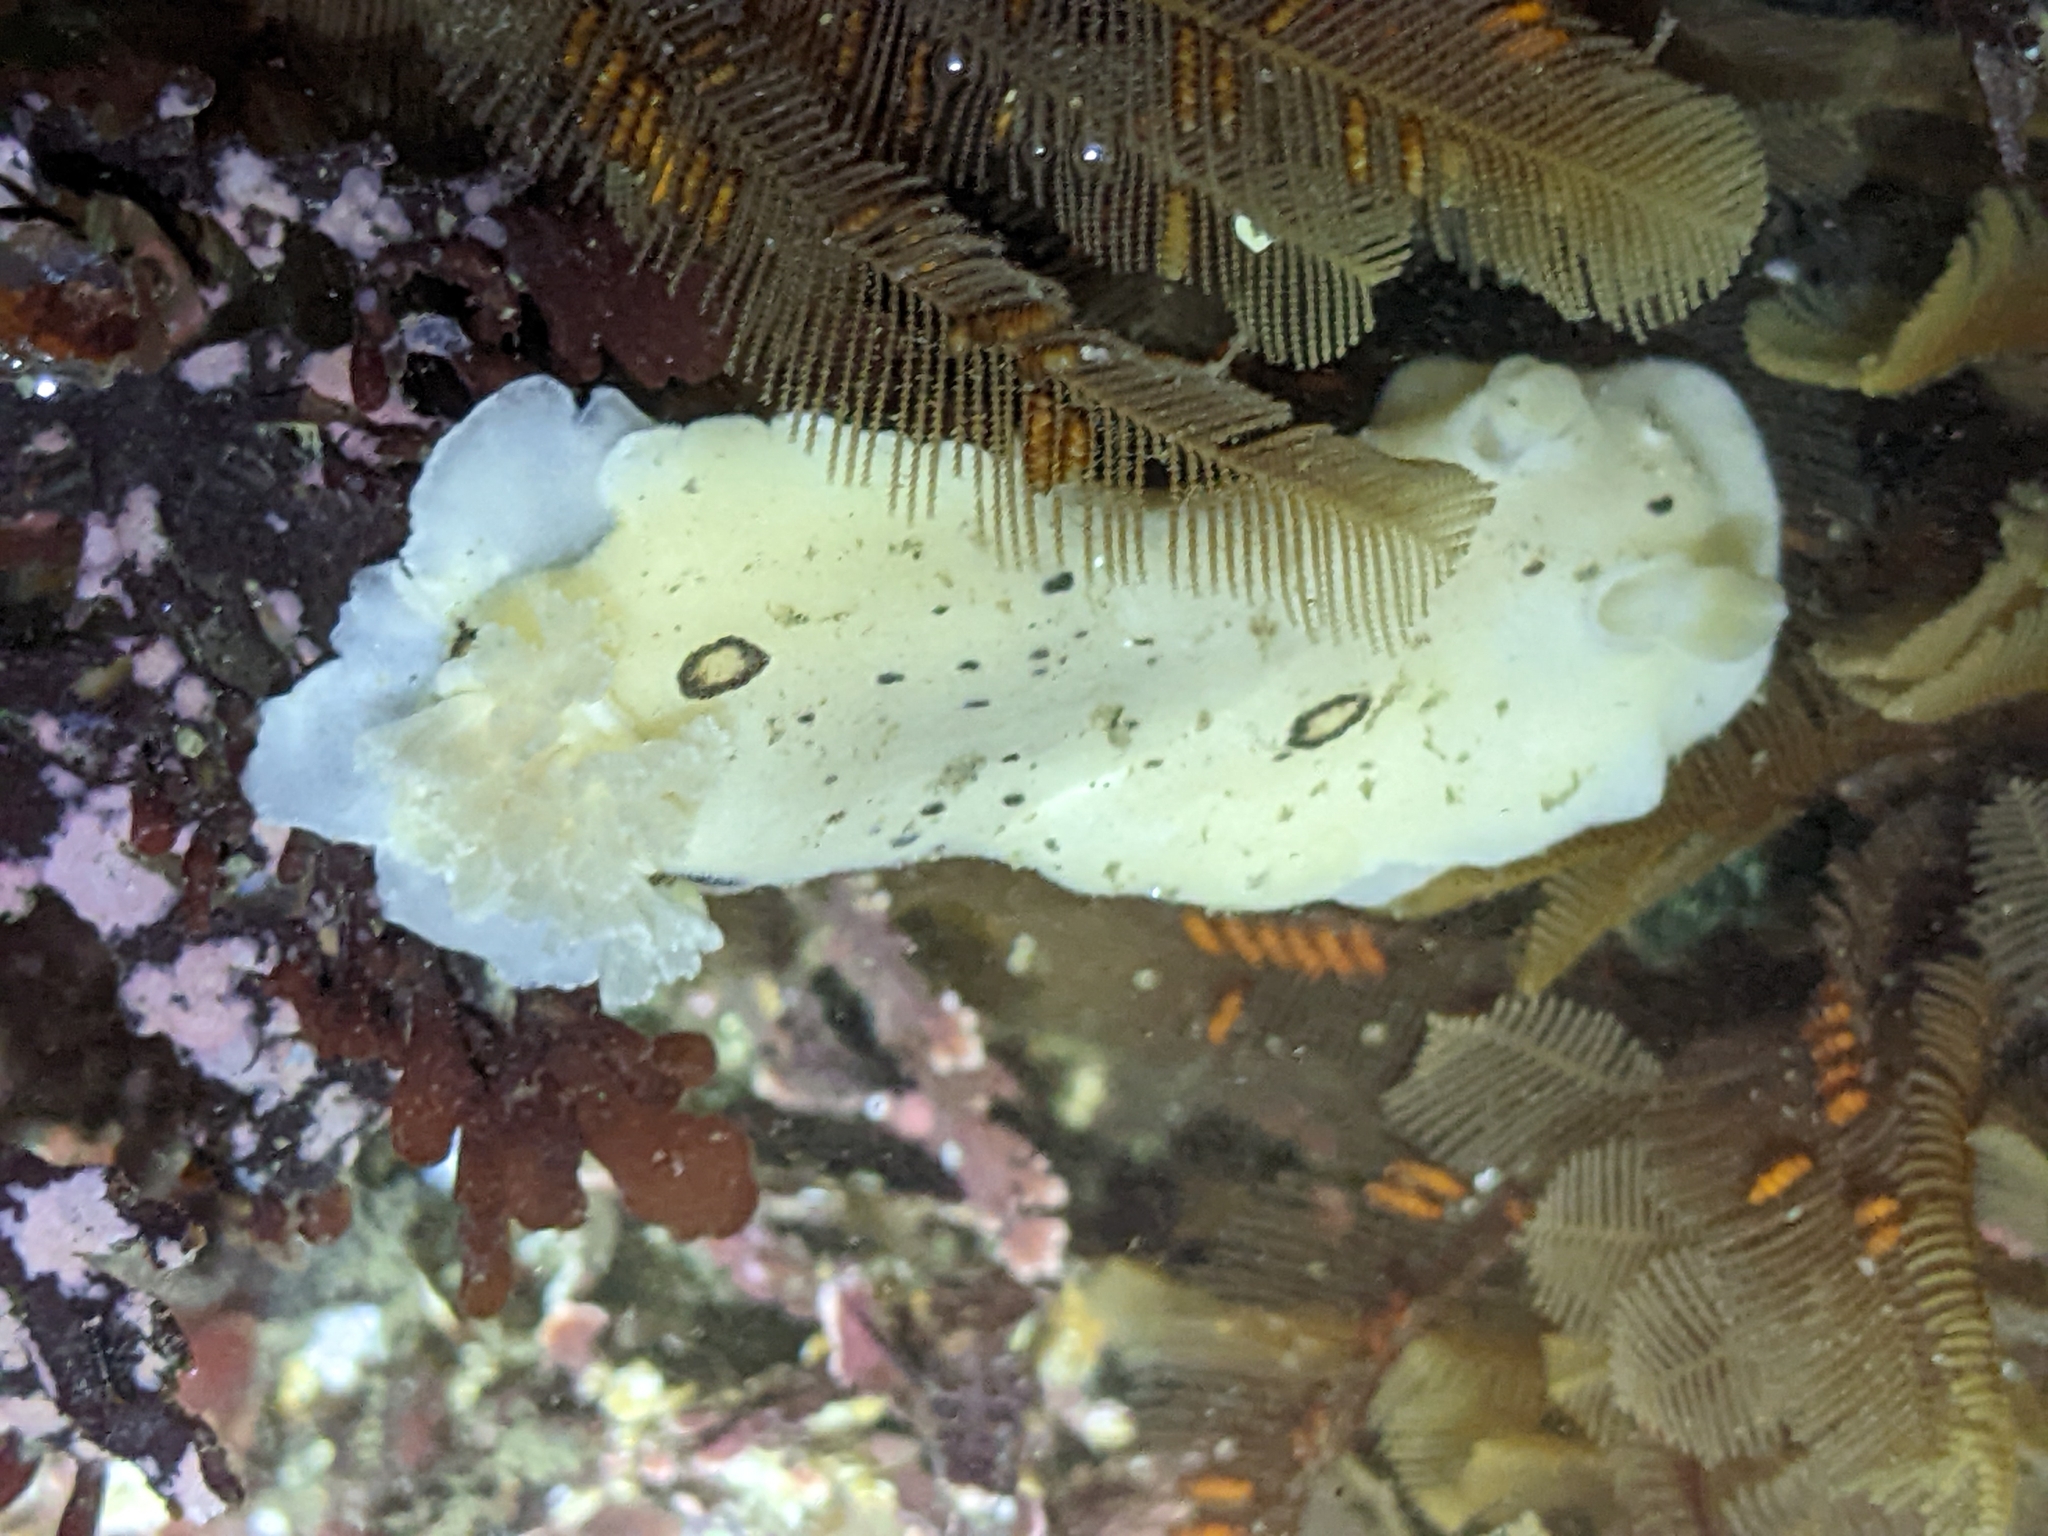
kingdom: Animalia
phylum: Mollusca
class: Gastropoda
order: Nudibranchia
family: Discodorididae
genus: Diaulula
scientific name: Diaulula sandiegensis
